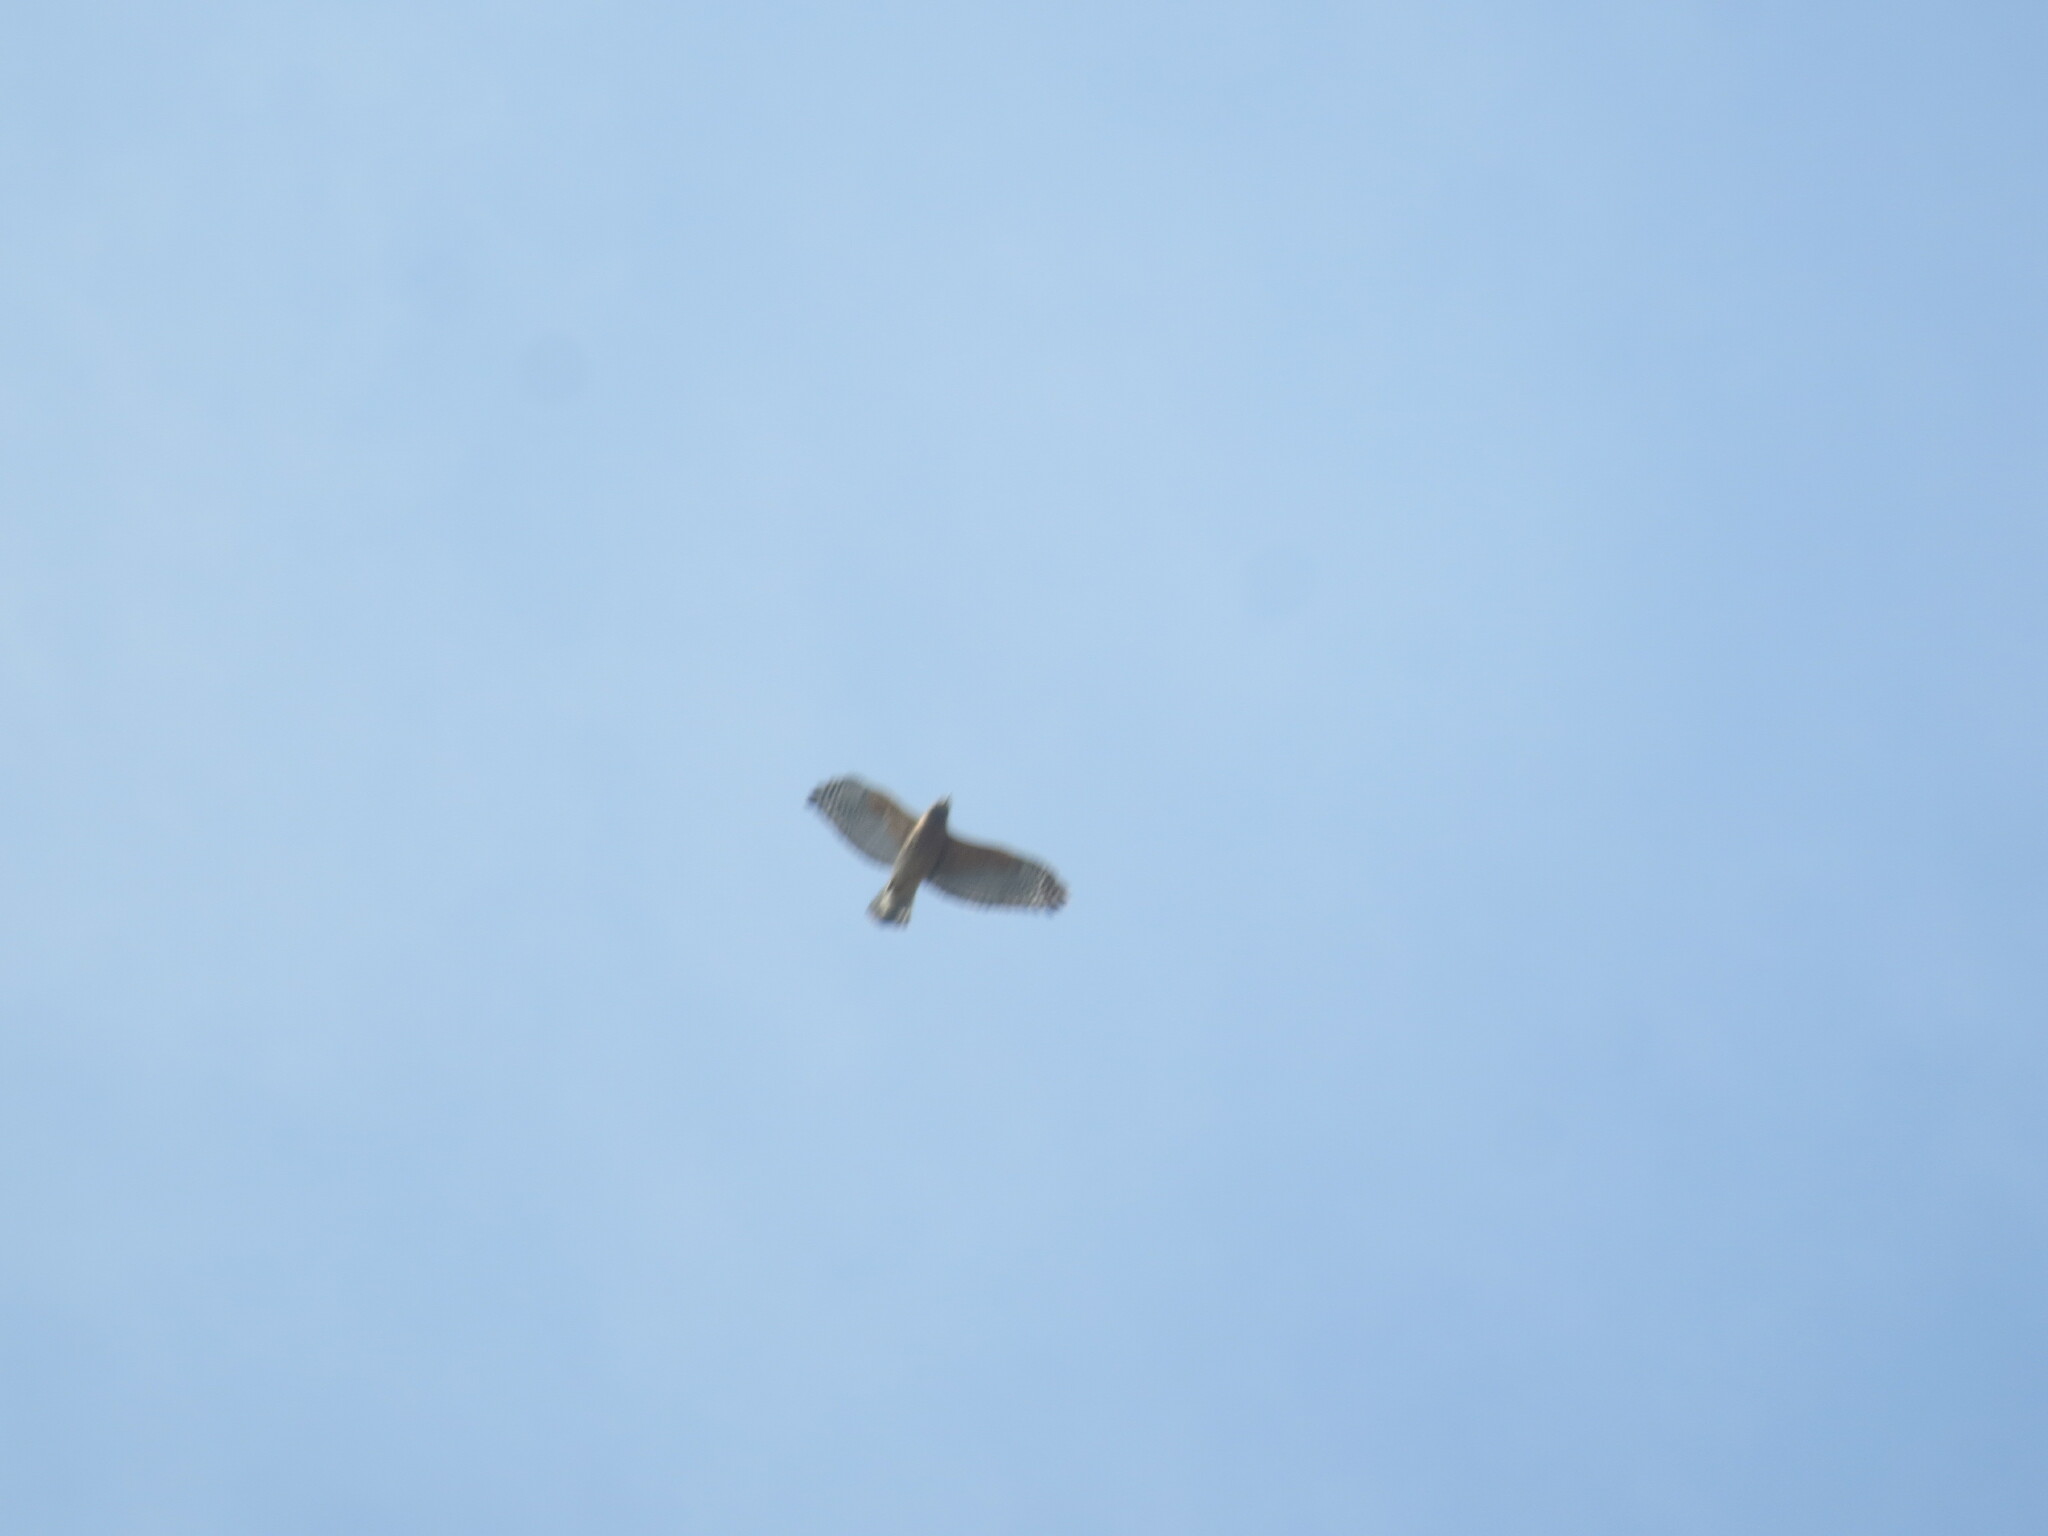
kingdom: Animalia
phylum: Chordata
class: Aves
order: Accipitriformes
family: Accipitridae
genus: Buteo
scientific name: Buteo lineatus
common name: Red-shouldered hawk
